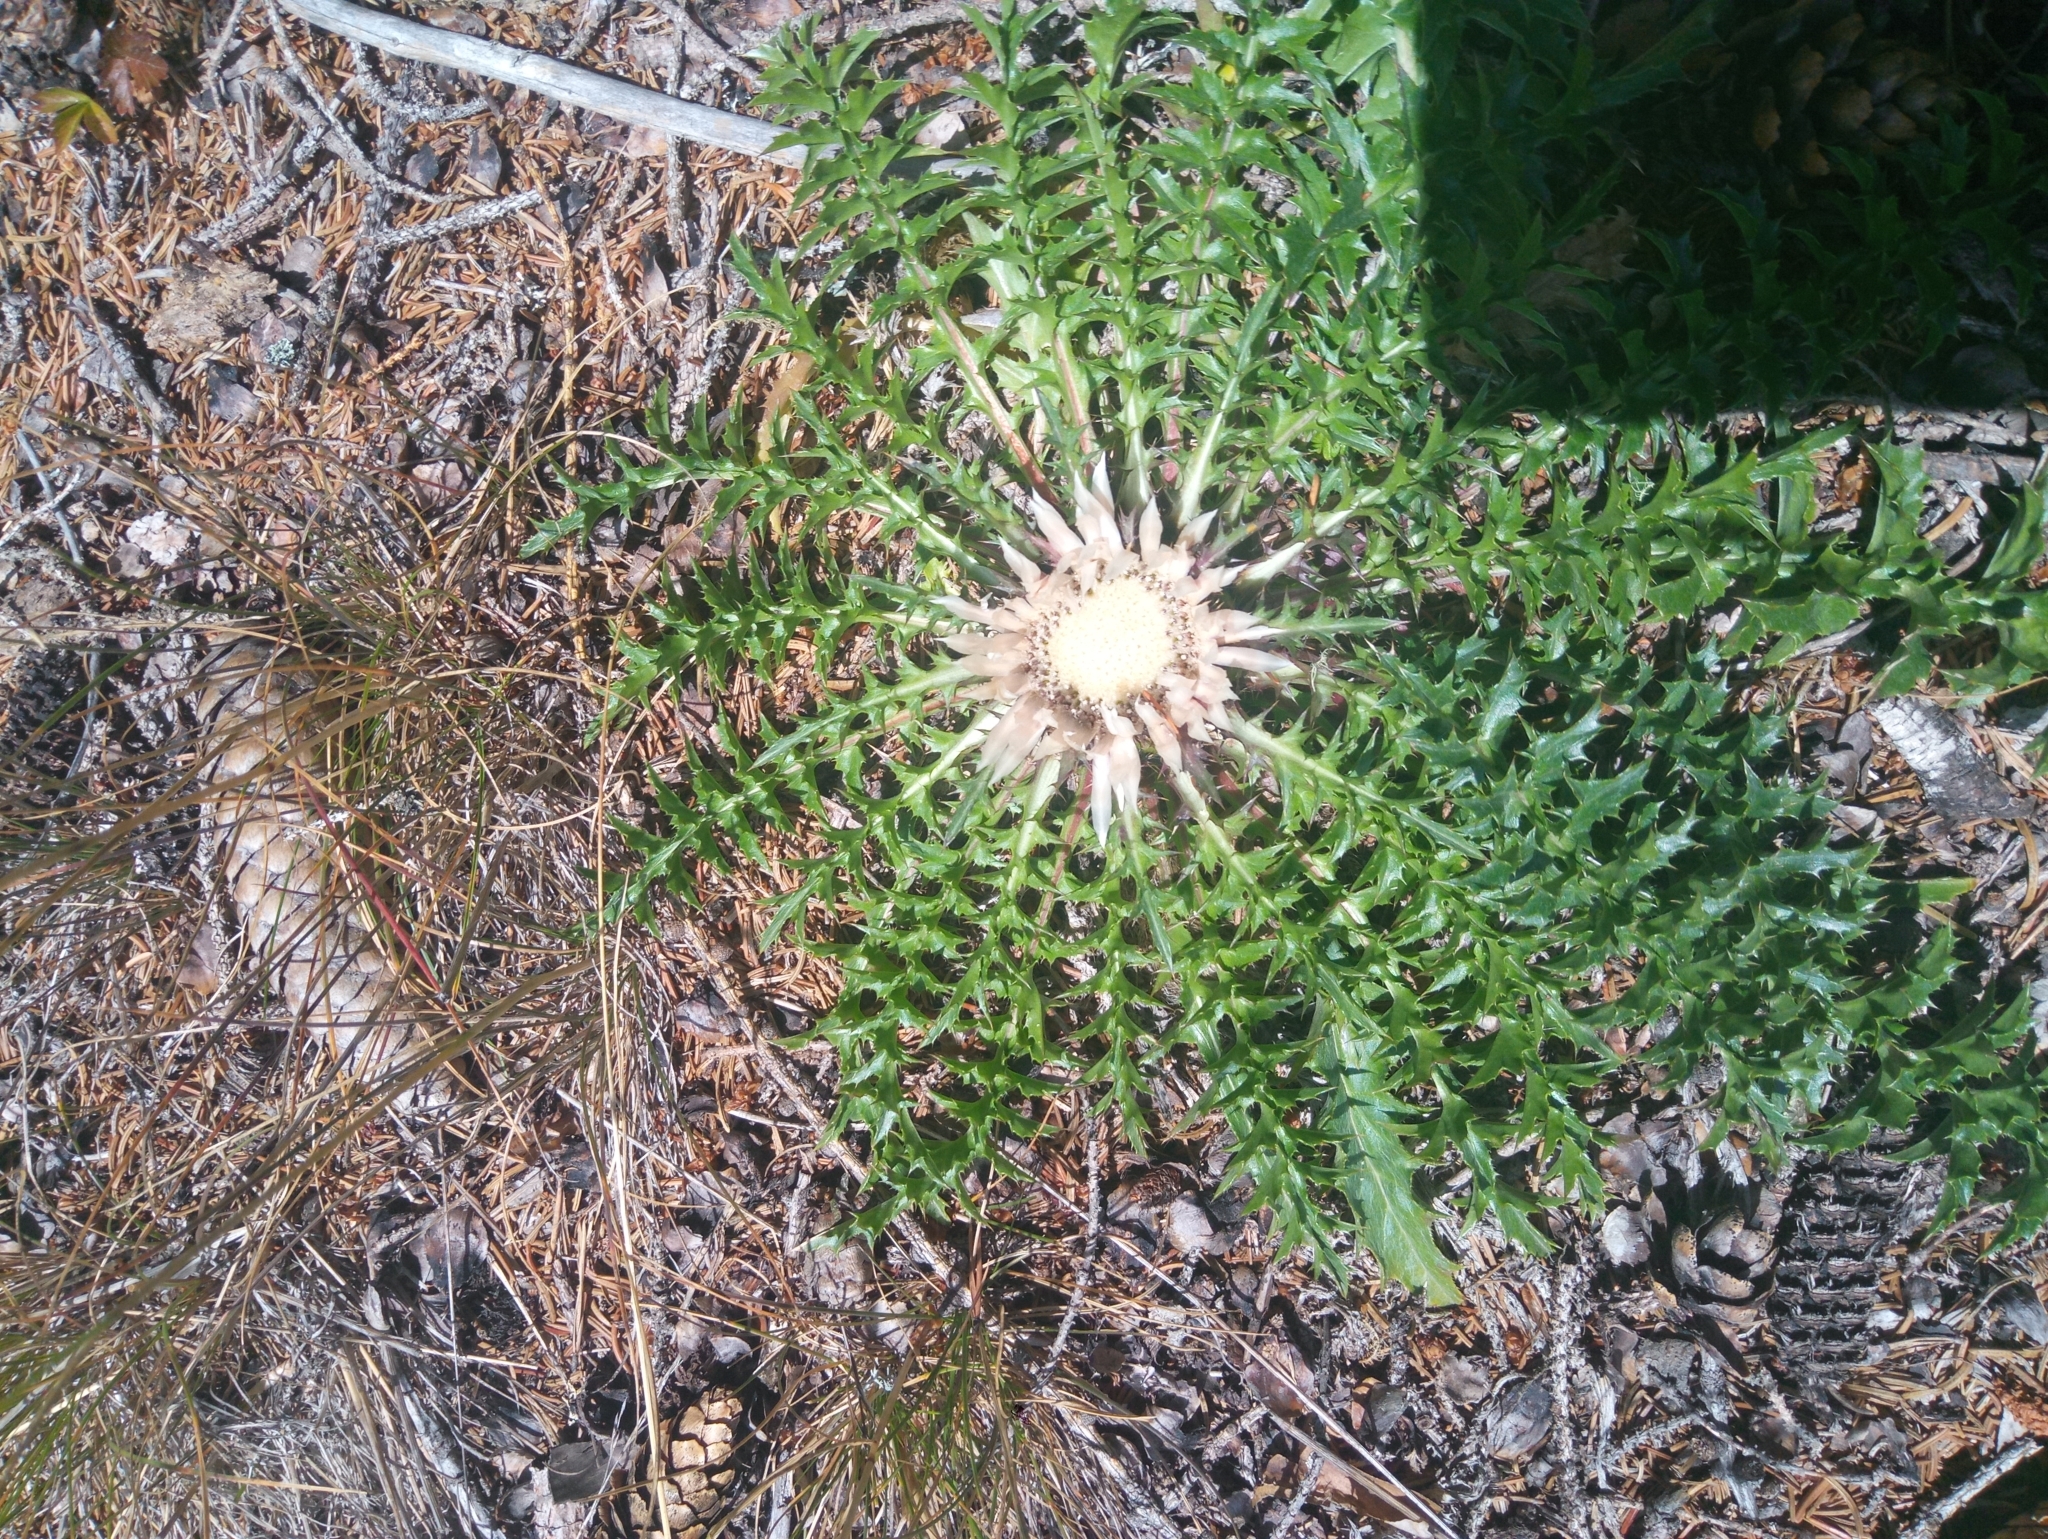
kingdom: Plantae
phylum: Tracheophyta
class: Magnoliopsida
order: Asterales
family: Asteraceae
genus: Carlina
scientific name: Carlina acaulis
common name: Stemless carline thistle
